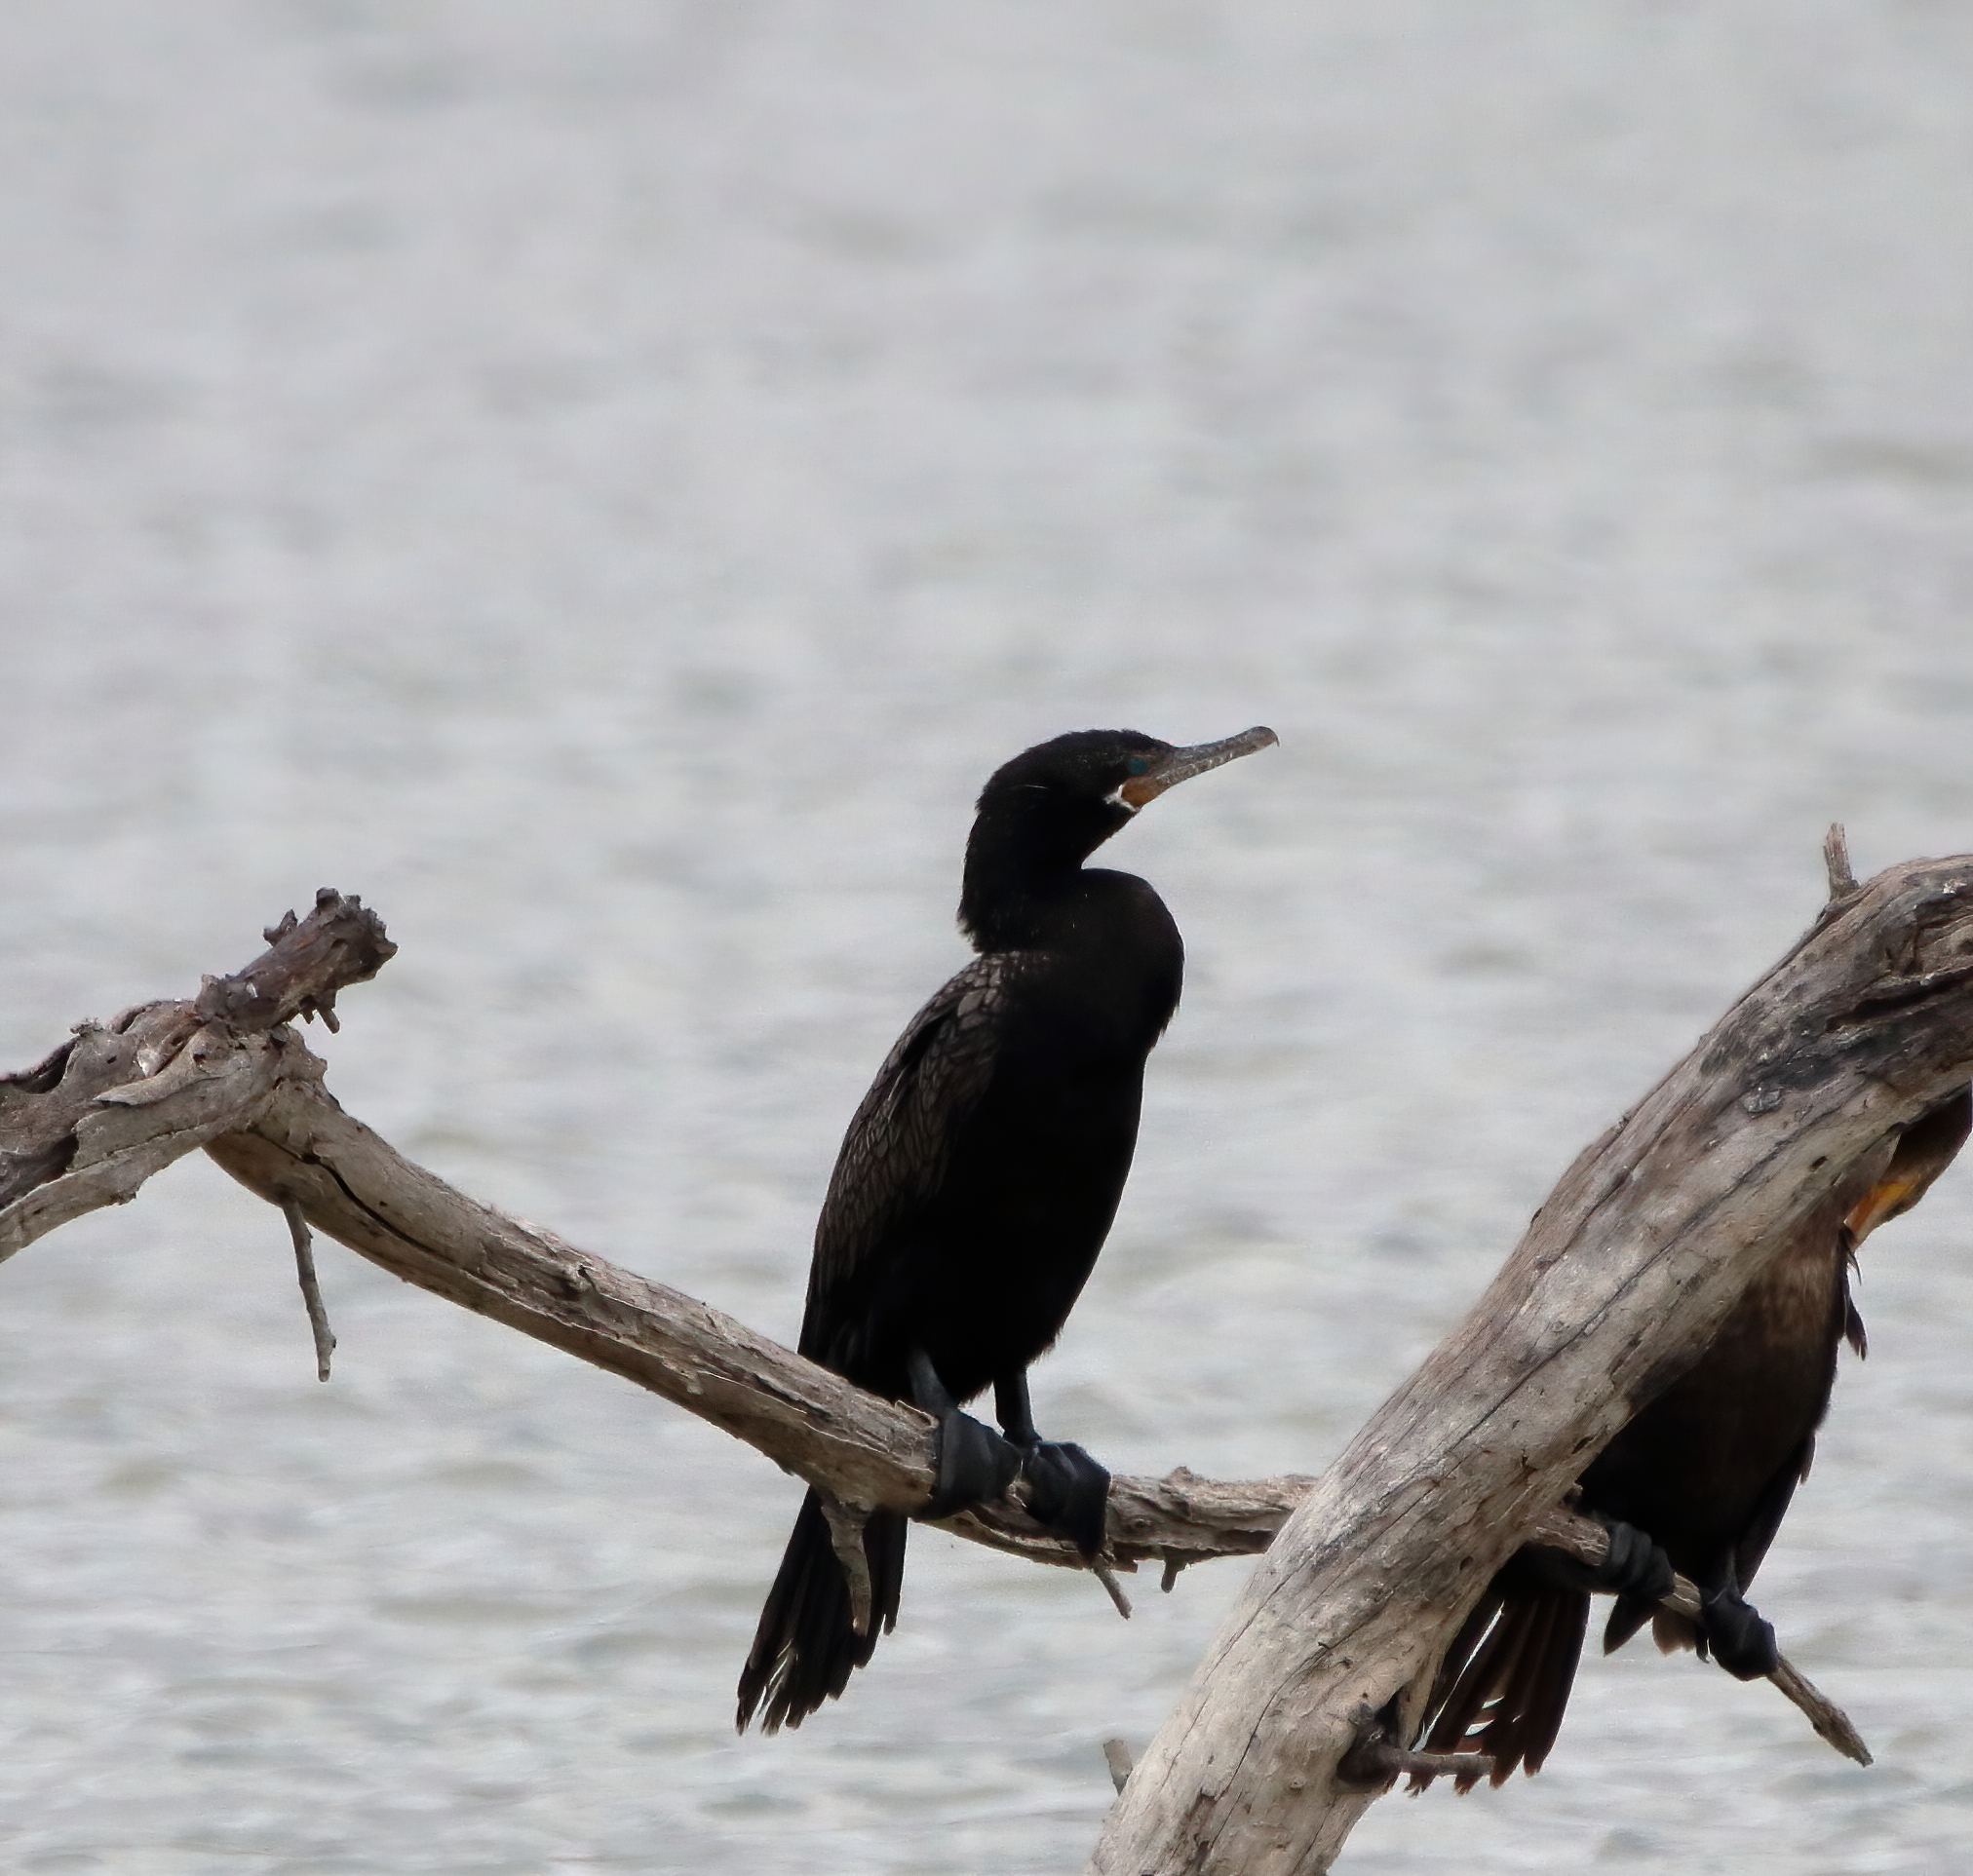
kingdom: Animalia
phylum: Chordata
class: Aves
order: Suliformes
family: Phalacrocoracidae
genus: Phalacrocorax
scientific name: Phalacrocorax brasilianus
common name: Neotropic cormorant
